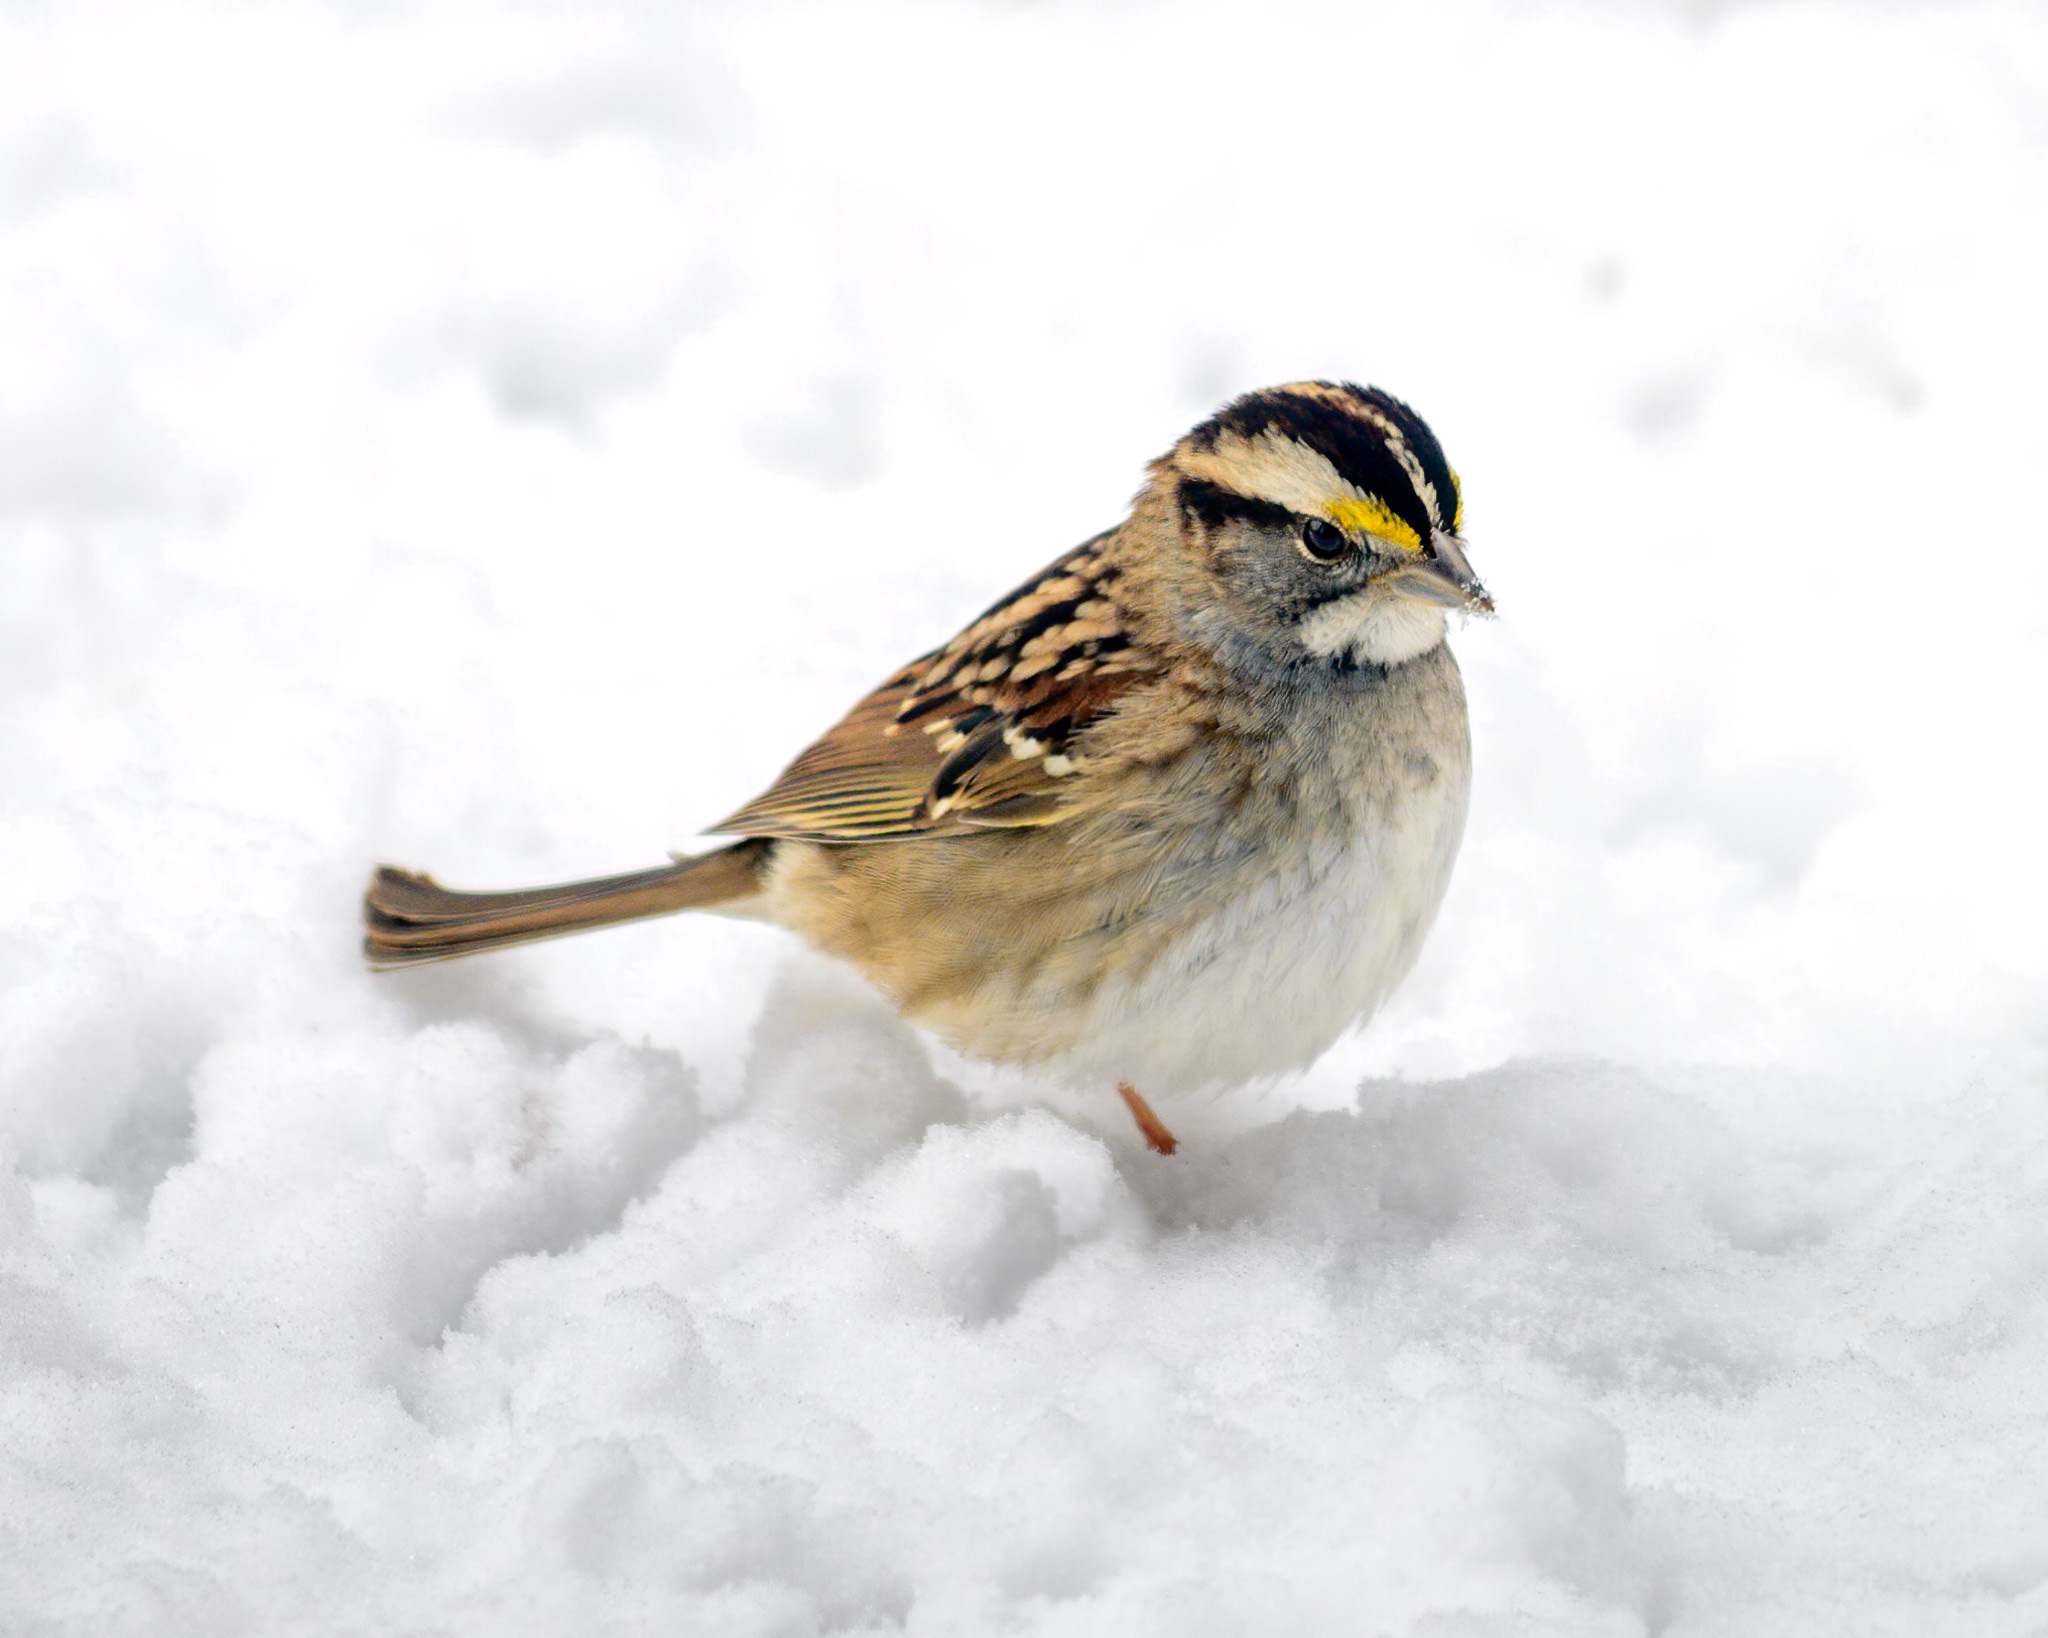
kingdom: Animalia
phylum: Chordata
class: Aves
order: Passeriformes
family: Passerellidae
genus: Zonotrichia
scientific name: Zonotrichia albicollis
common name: White-throated sparrow
